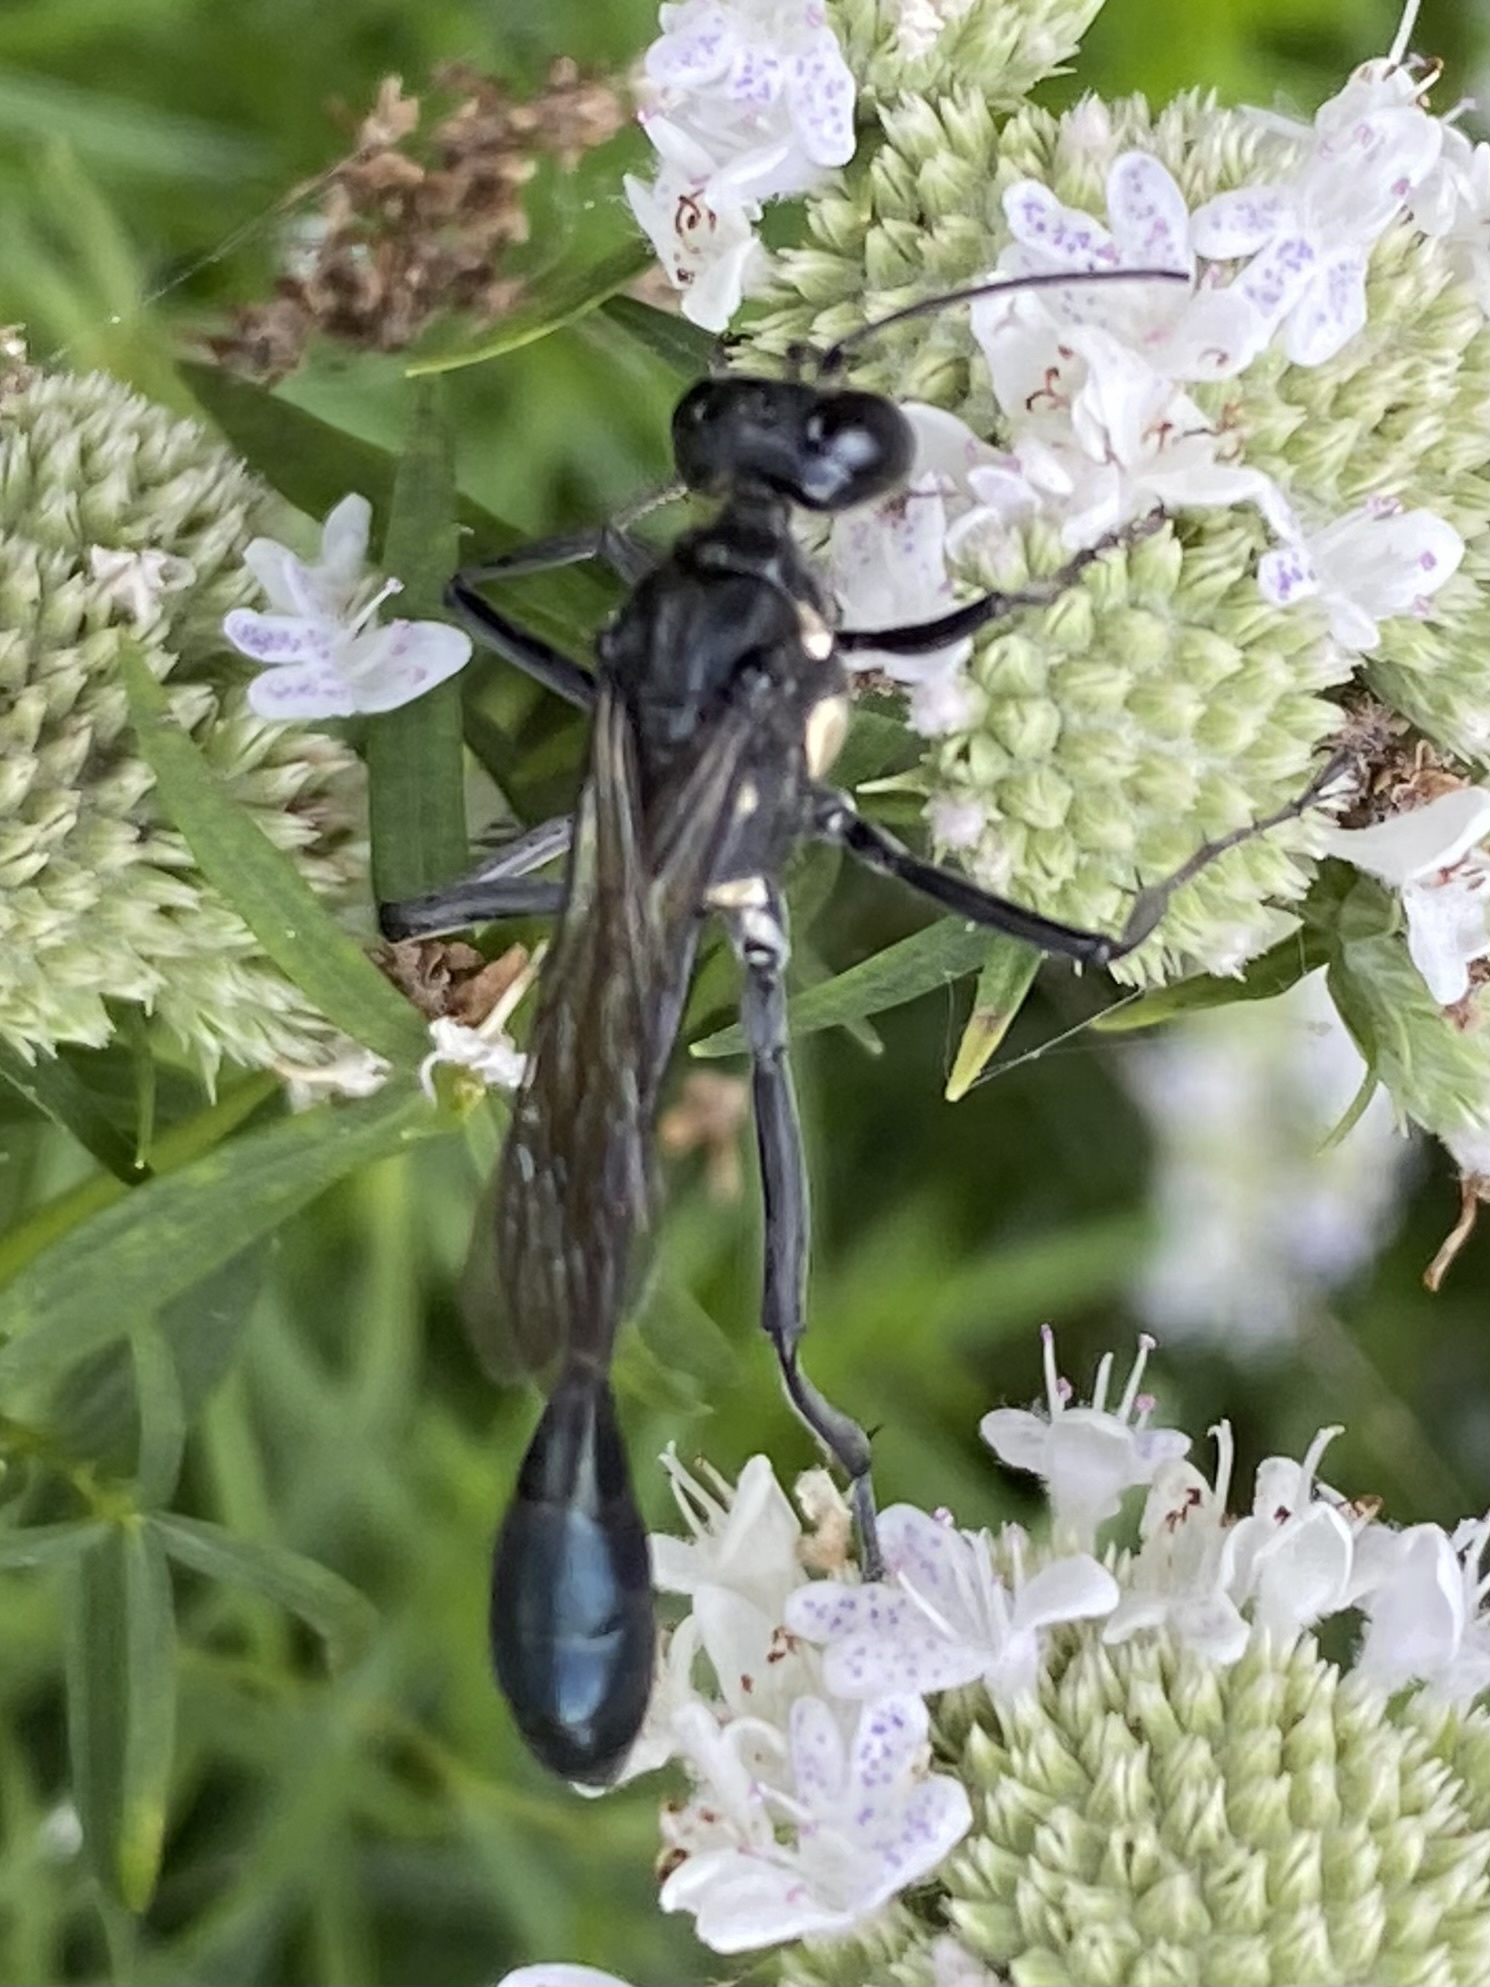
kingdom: Animalia
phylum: Arthropoda
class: Insecta
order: Hymenoptera
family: Sphecidae
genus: Eremnophila
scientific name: Eremnophila aureonotata
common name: Gold-marked thread-waisted wasp
